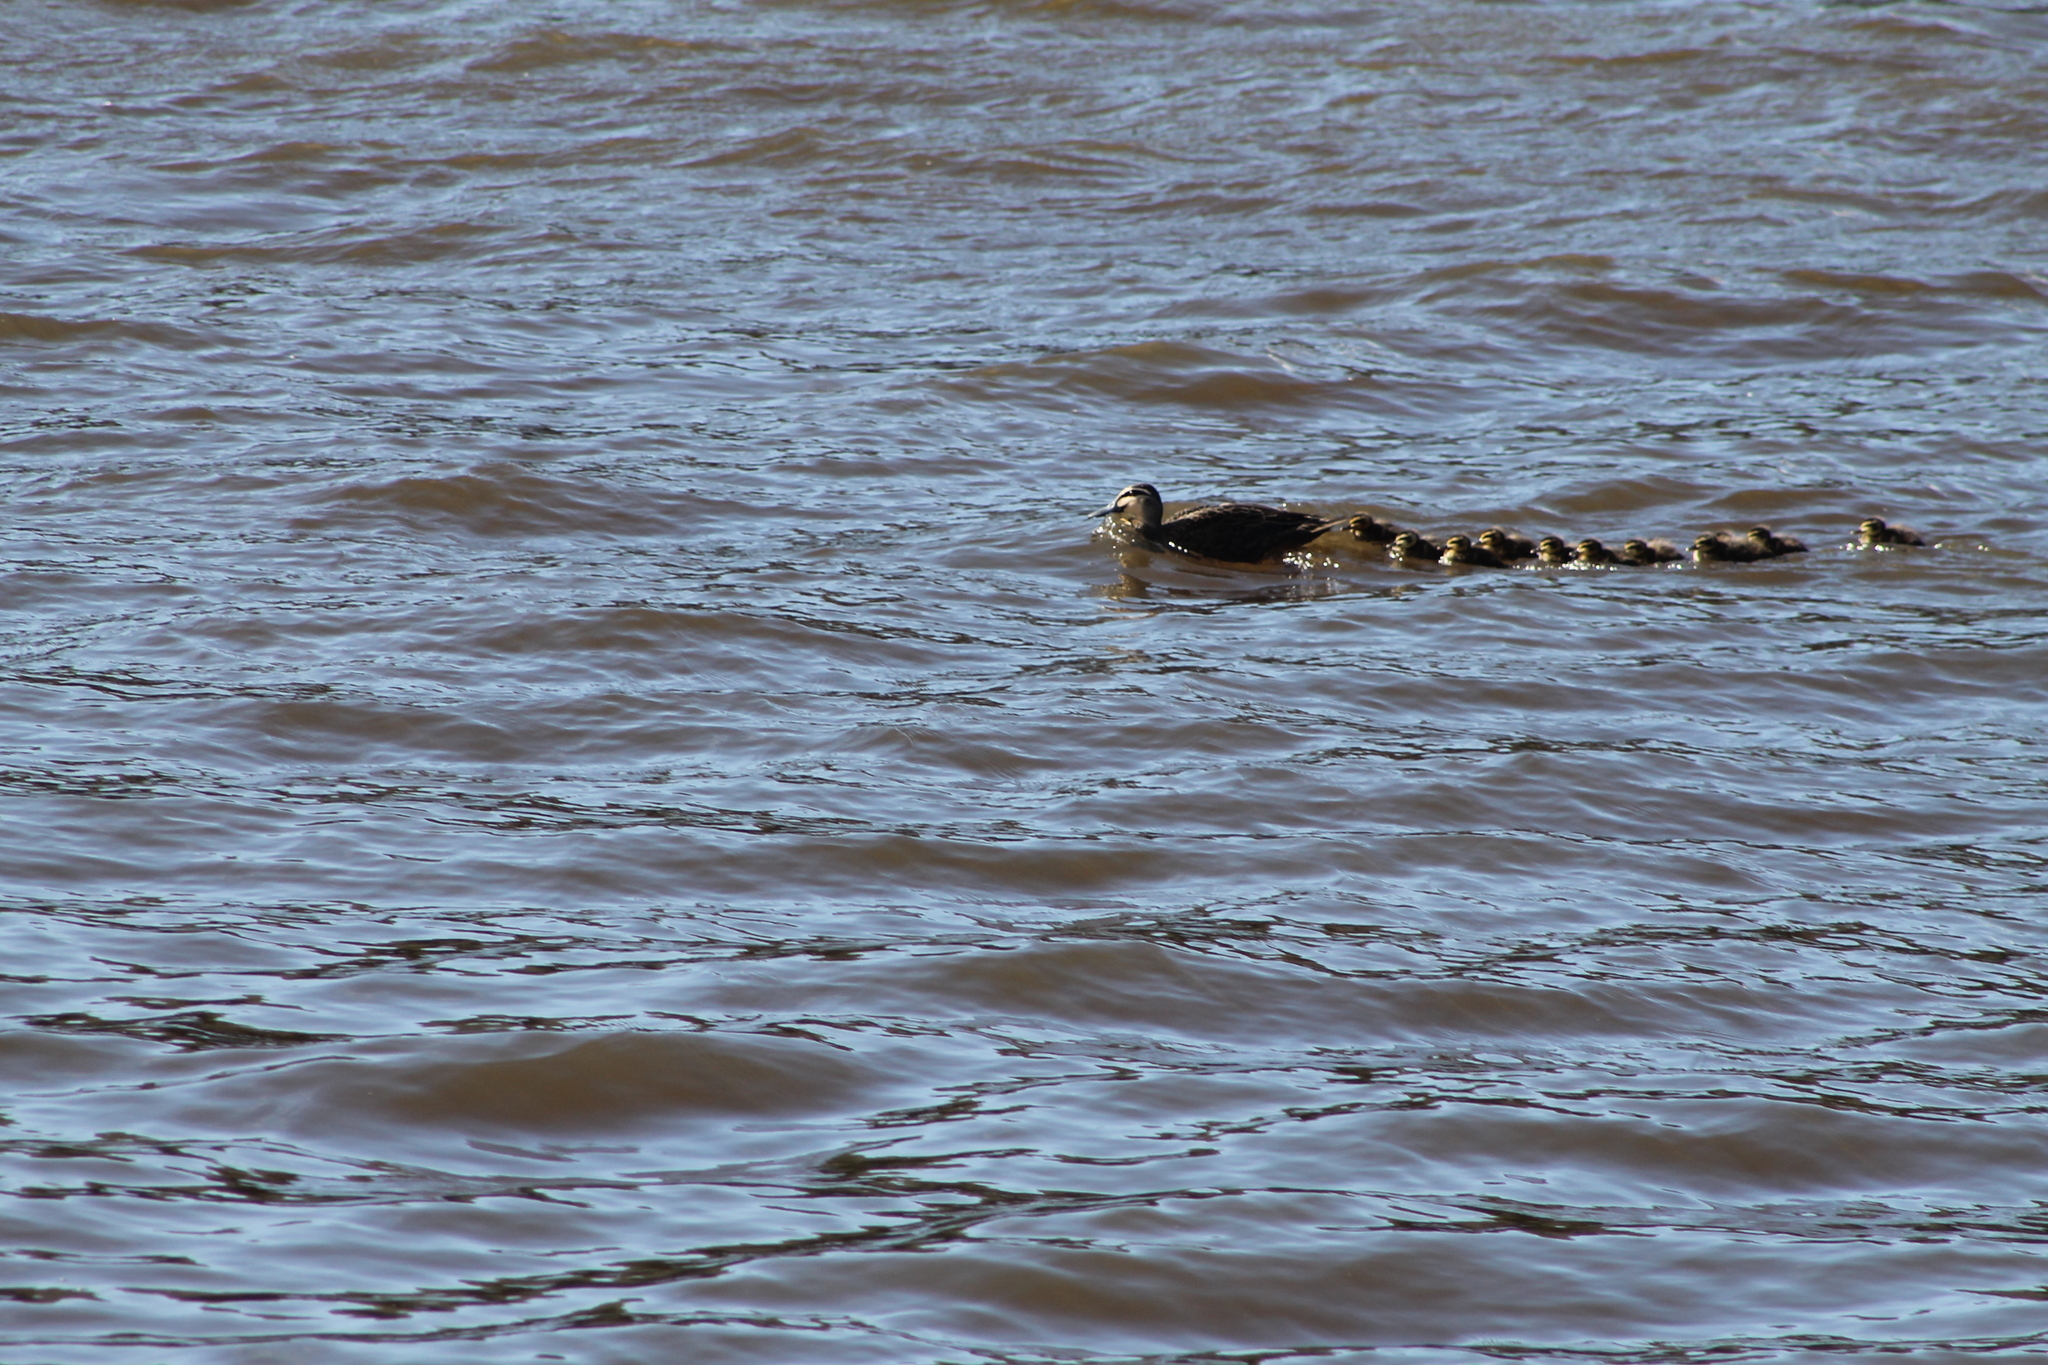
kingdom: Animalia
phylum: Chordata
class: Aves
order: Anseriformes
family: Anatidae
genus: Anas
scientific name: Anas superciliosa
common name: Pacific black duck
